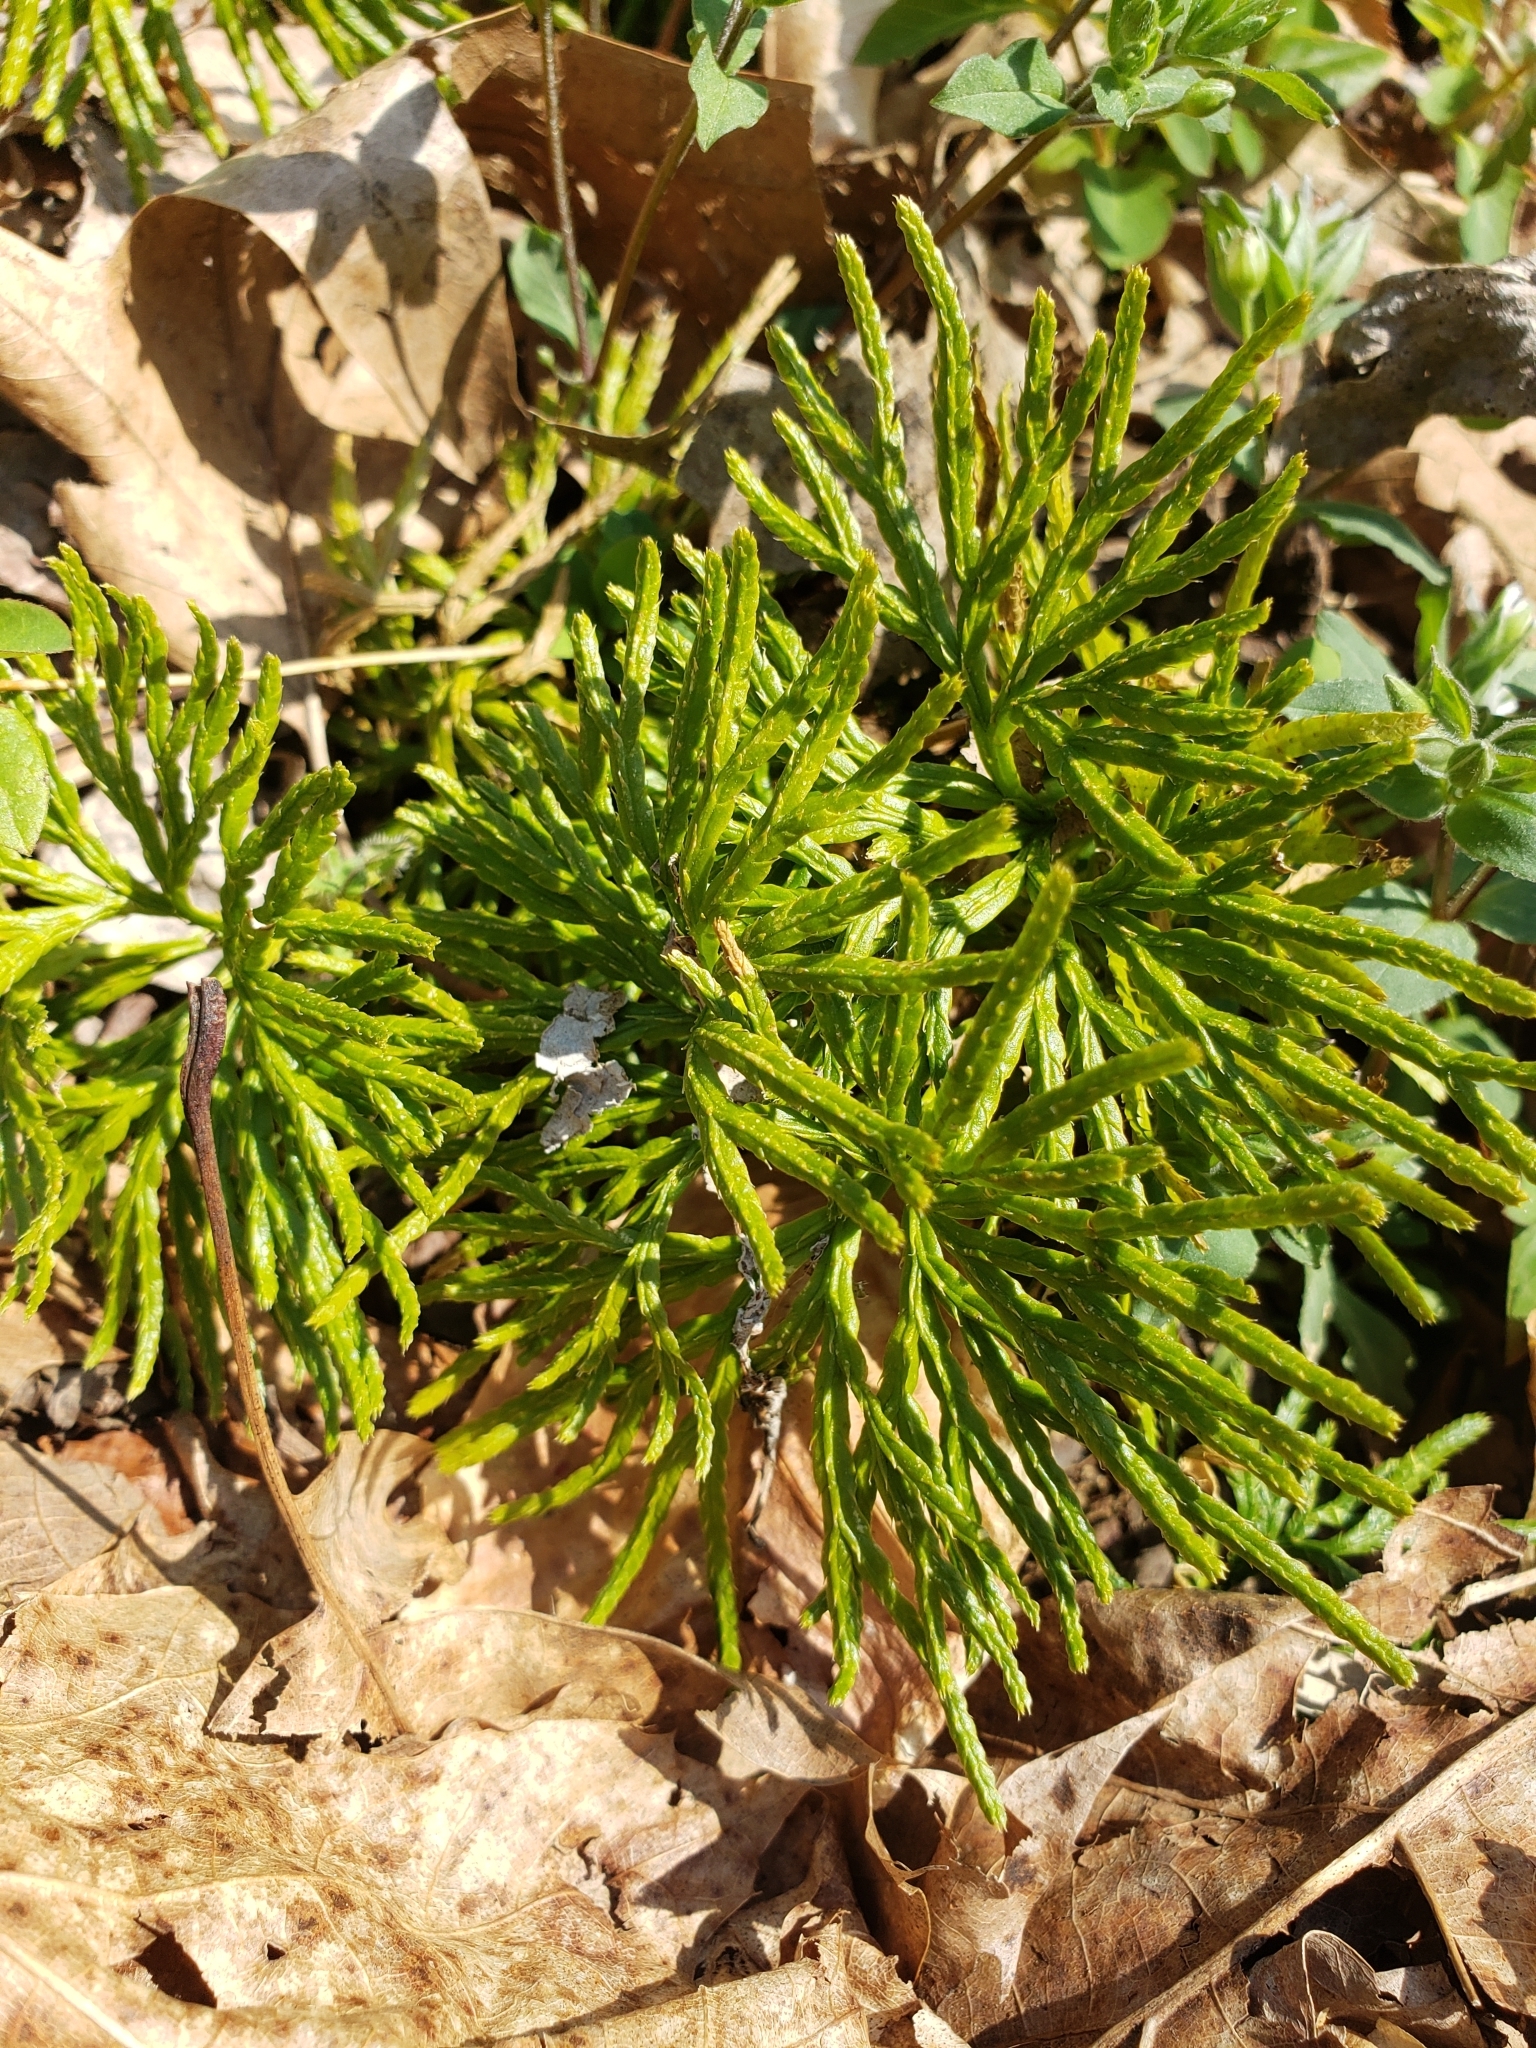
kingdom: Plantae
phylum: Tracheophyta
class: Lycopodiopsida
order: Lycopodiales
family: Lycopodiaceae
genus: Diphasiastrum
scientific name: Diphasiastrum digitatum
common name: Southern running-pine
